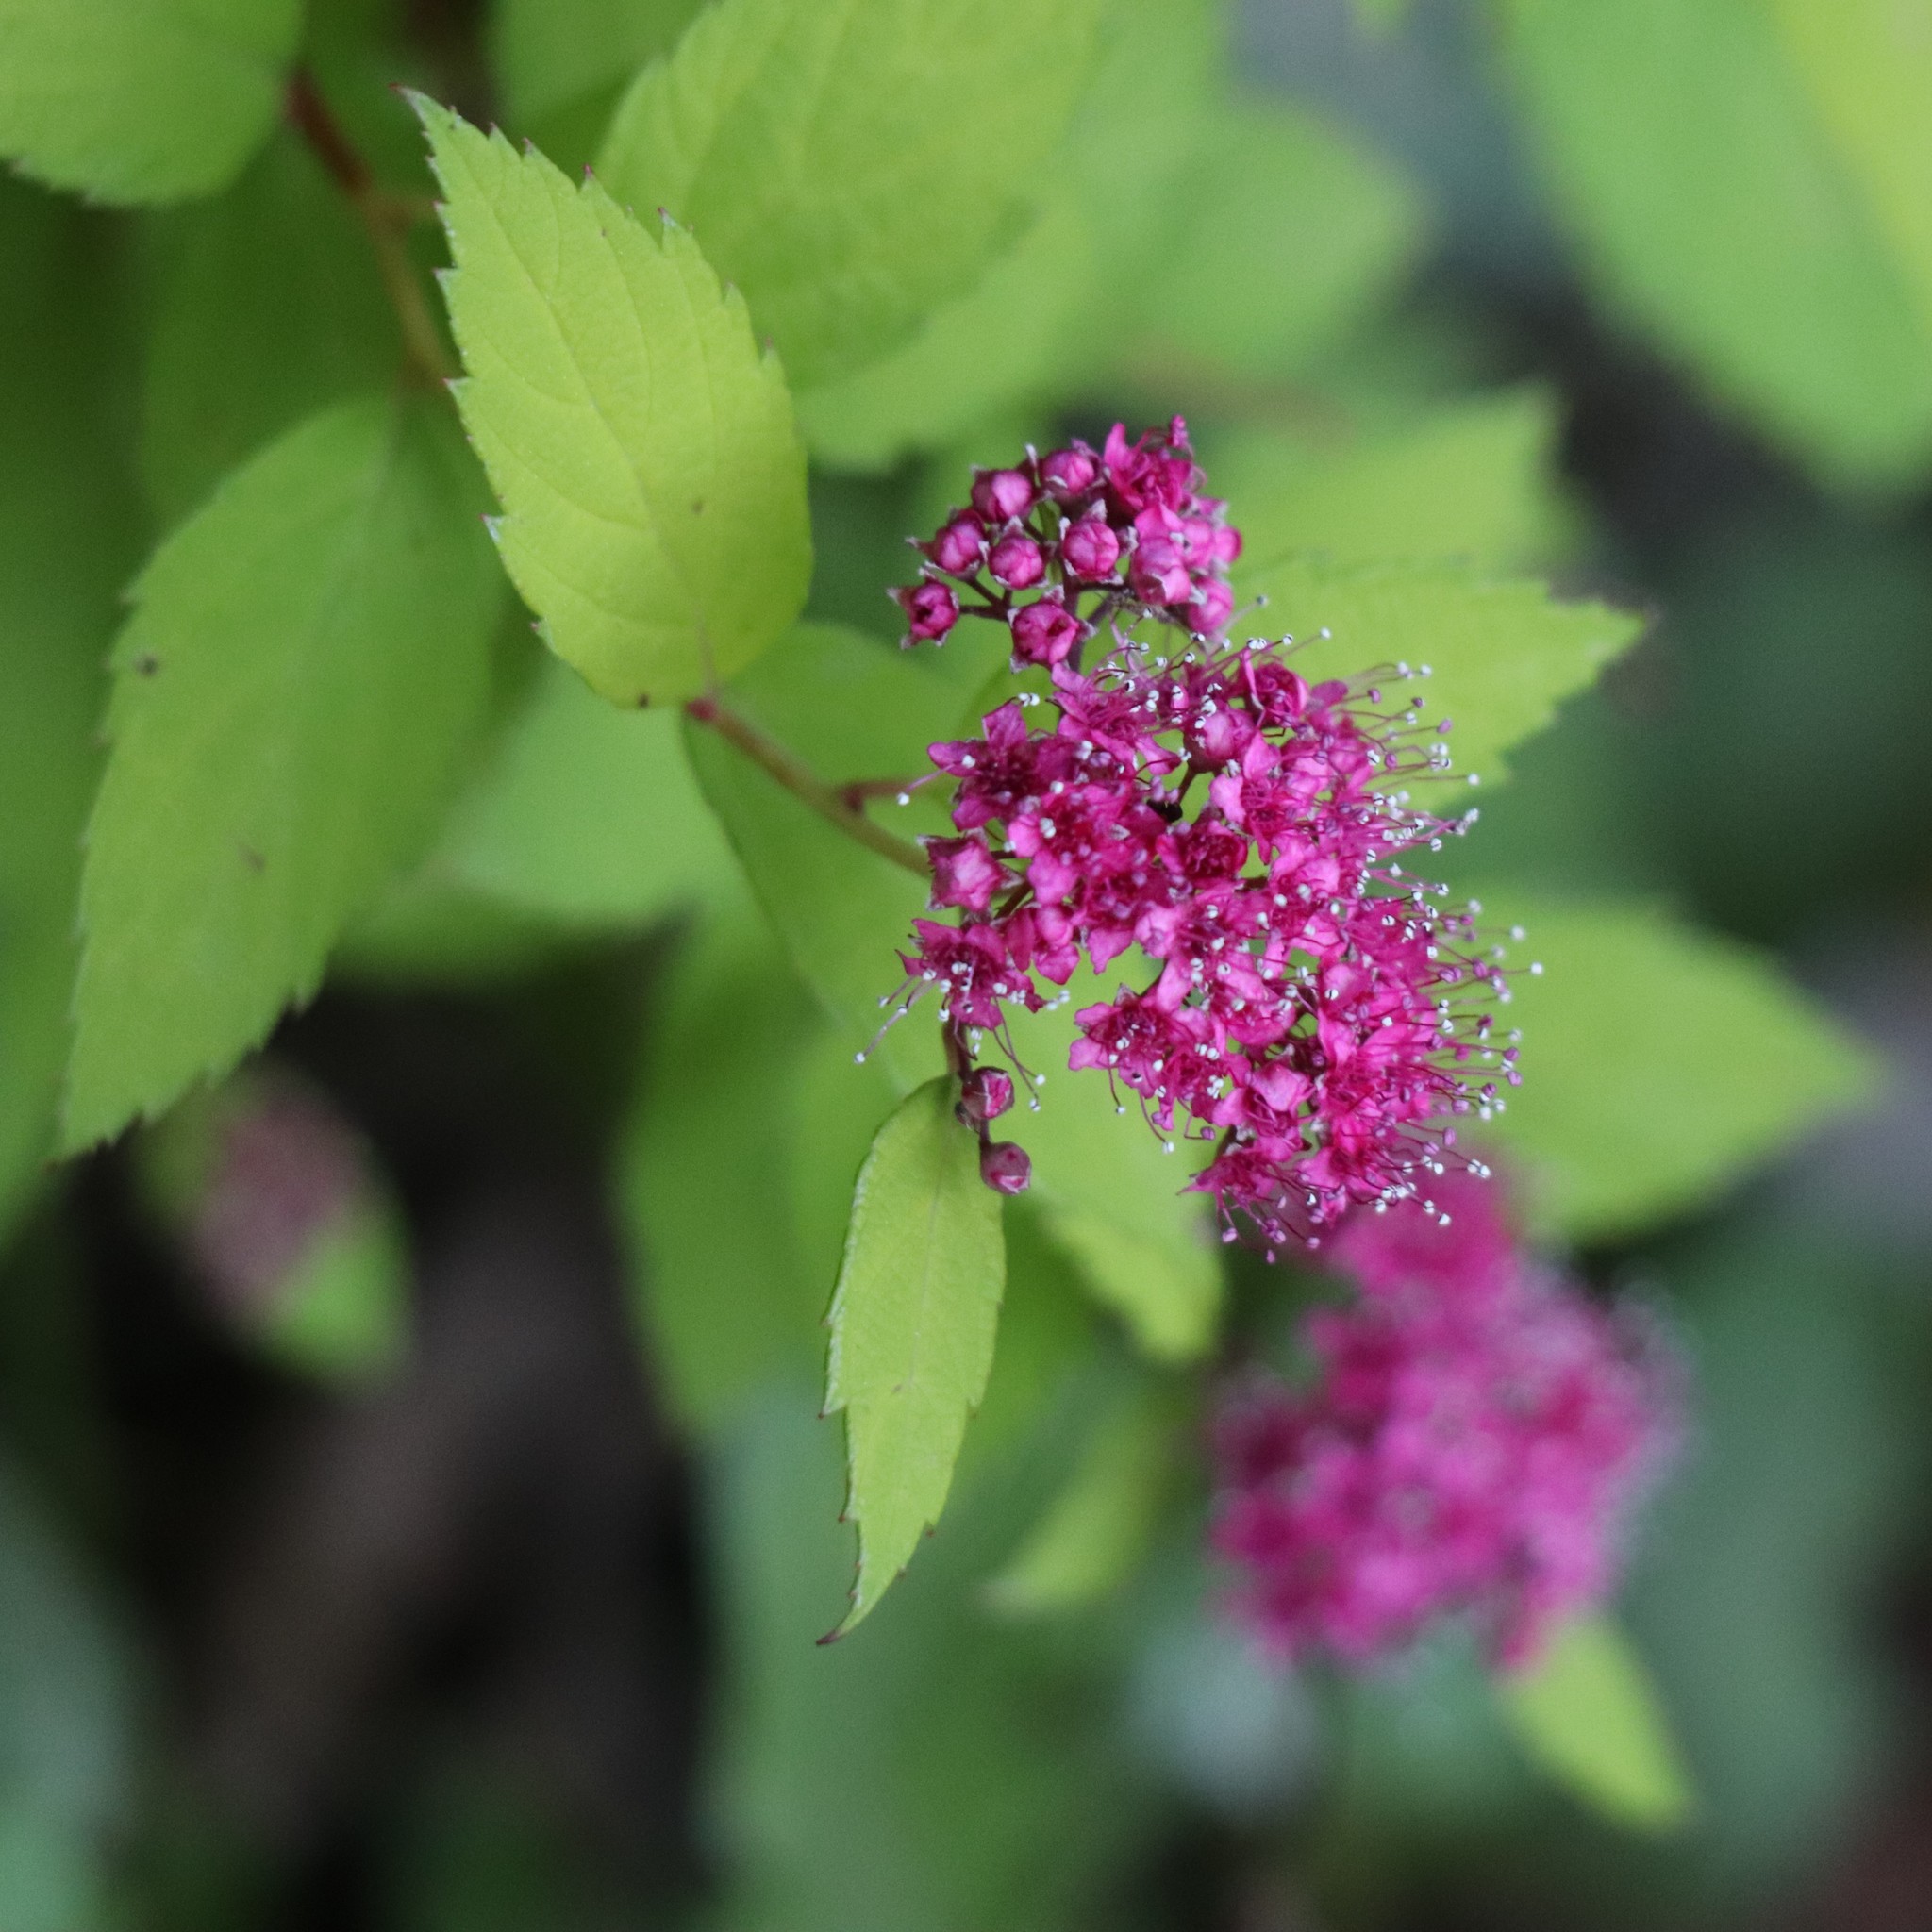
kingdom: Plantae
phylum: Tracheophyta
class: Magnoliopsida
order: Rosales
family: Rosaceae
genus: Spiraea
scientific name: Spiraea japonica
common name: Japanese spiraea
